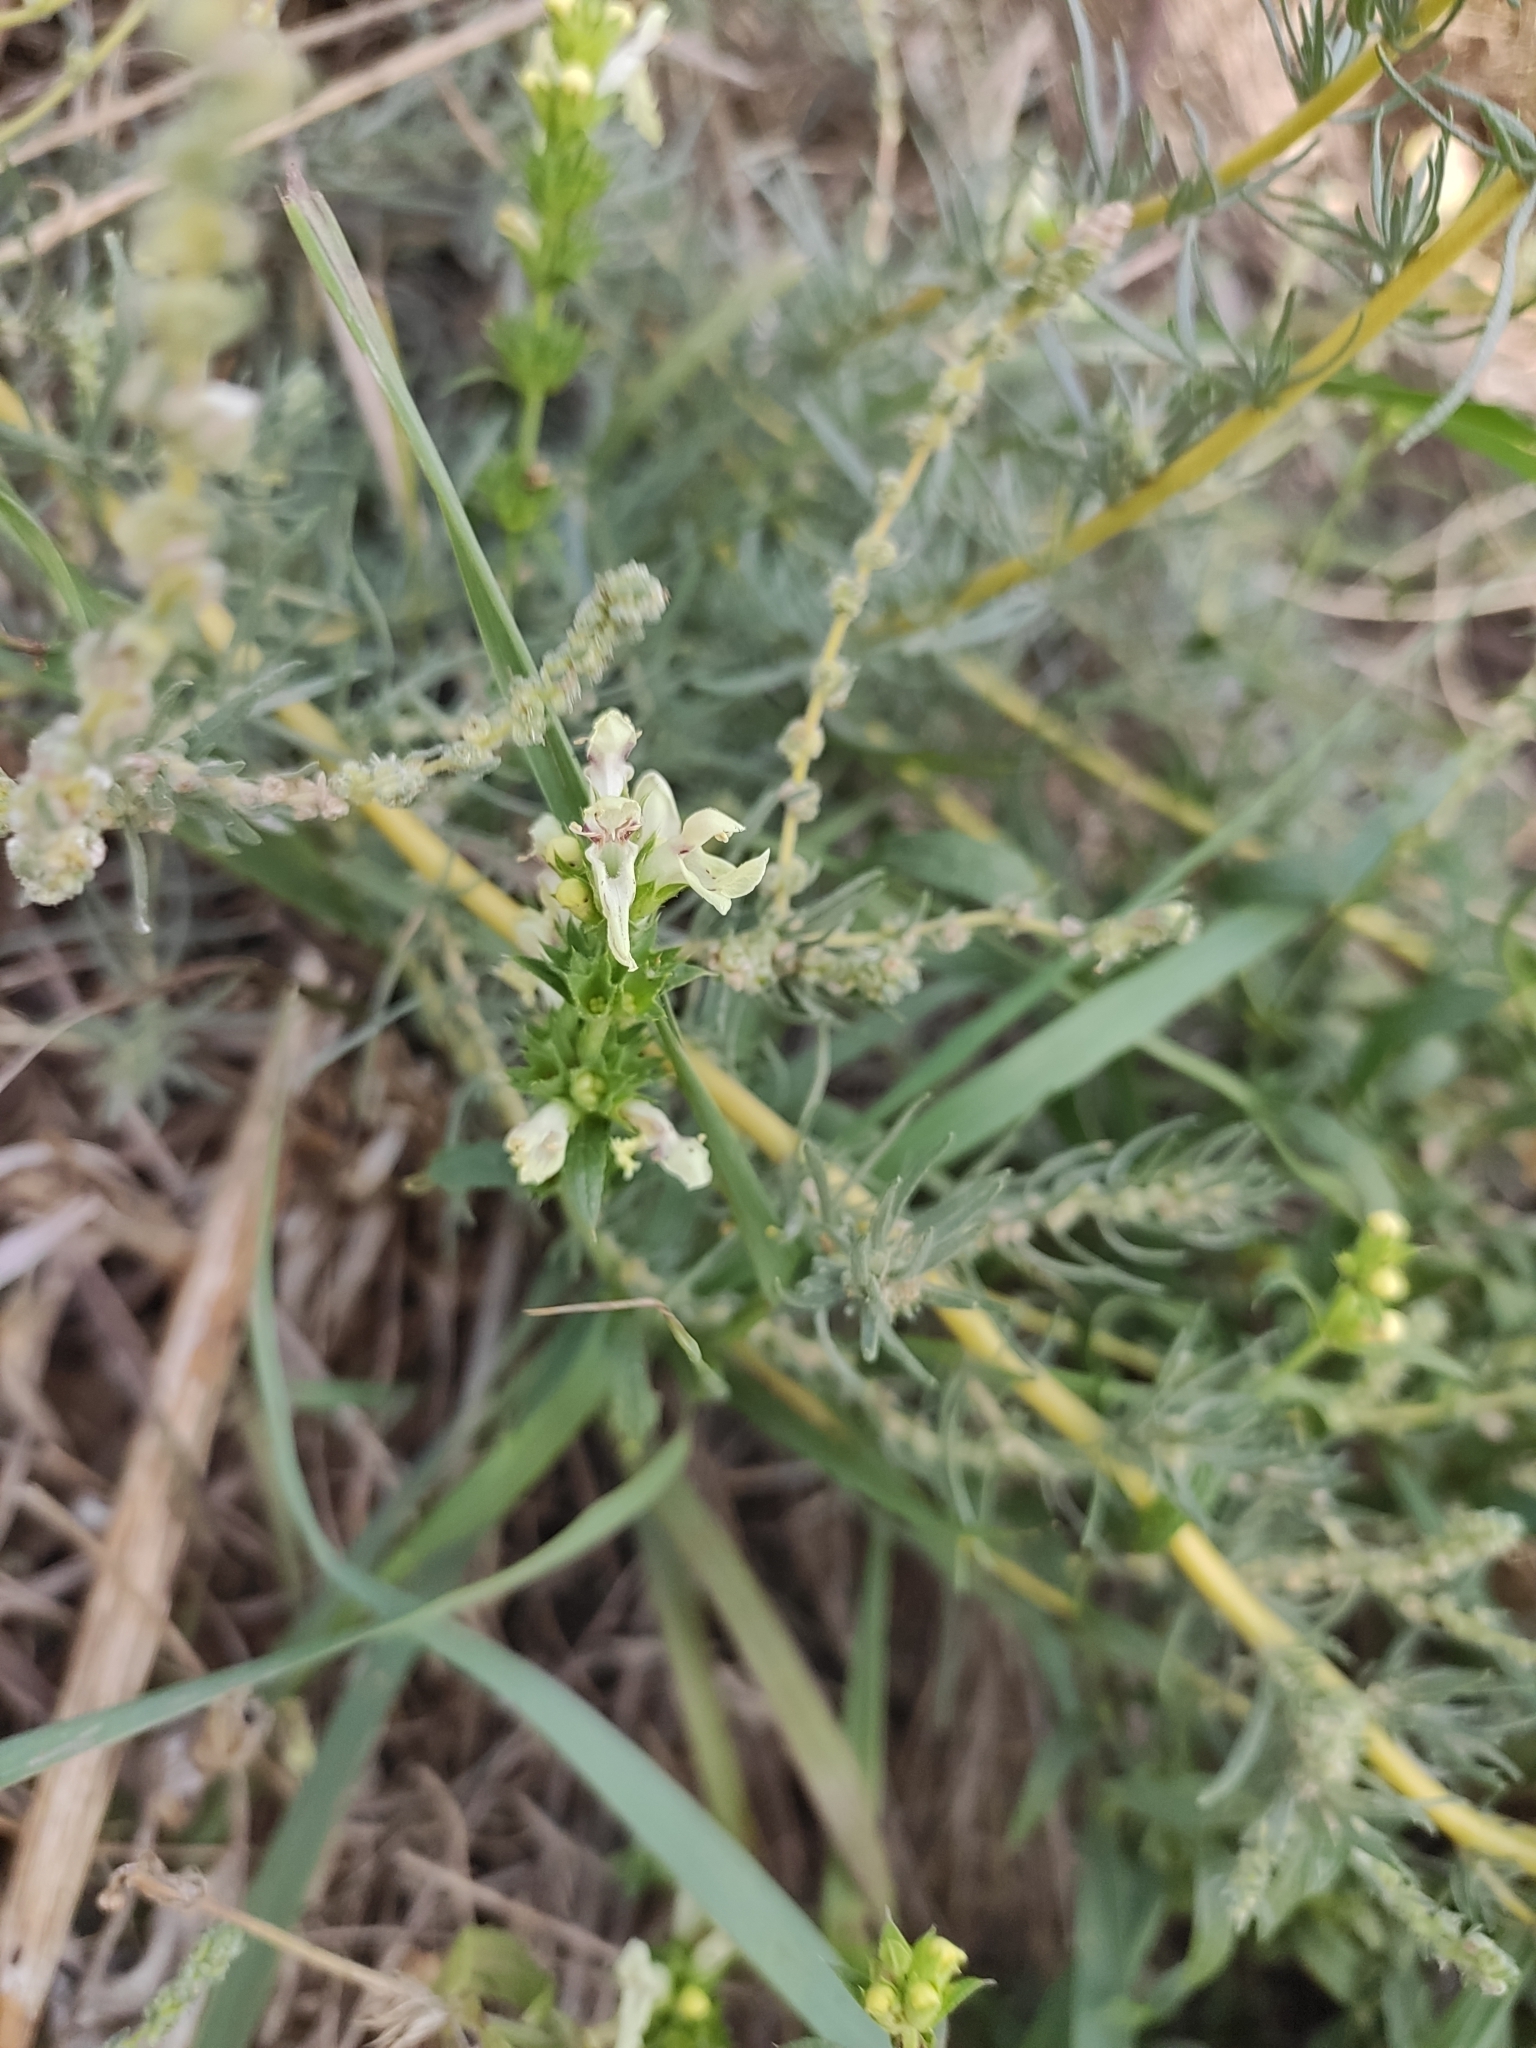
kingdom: Plantae
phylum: Tracheophyta
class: Magnoliopsida
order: Lamiales
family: Lamiaceae
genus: Stachys
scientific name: Stachys recta
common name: Perennial yellow-woundwort
